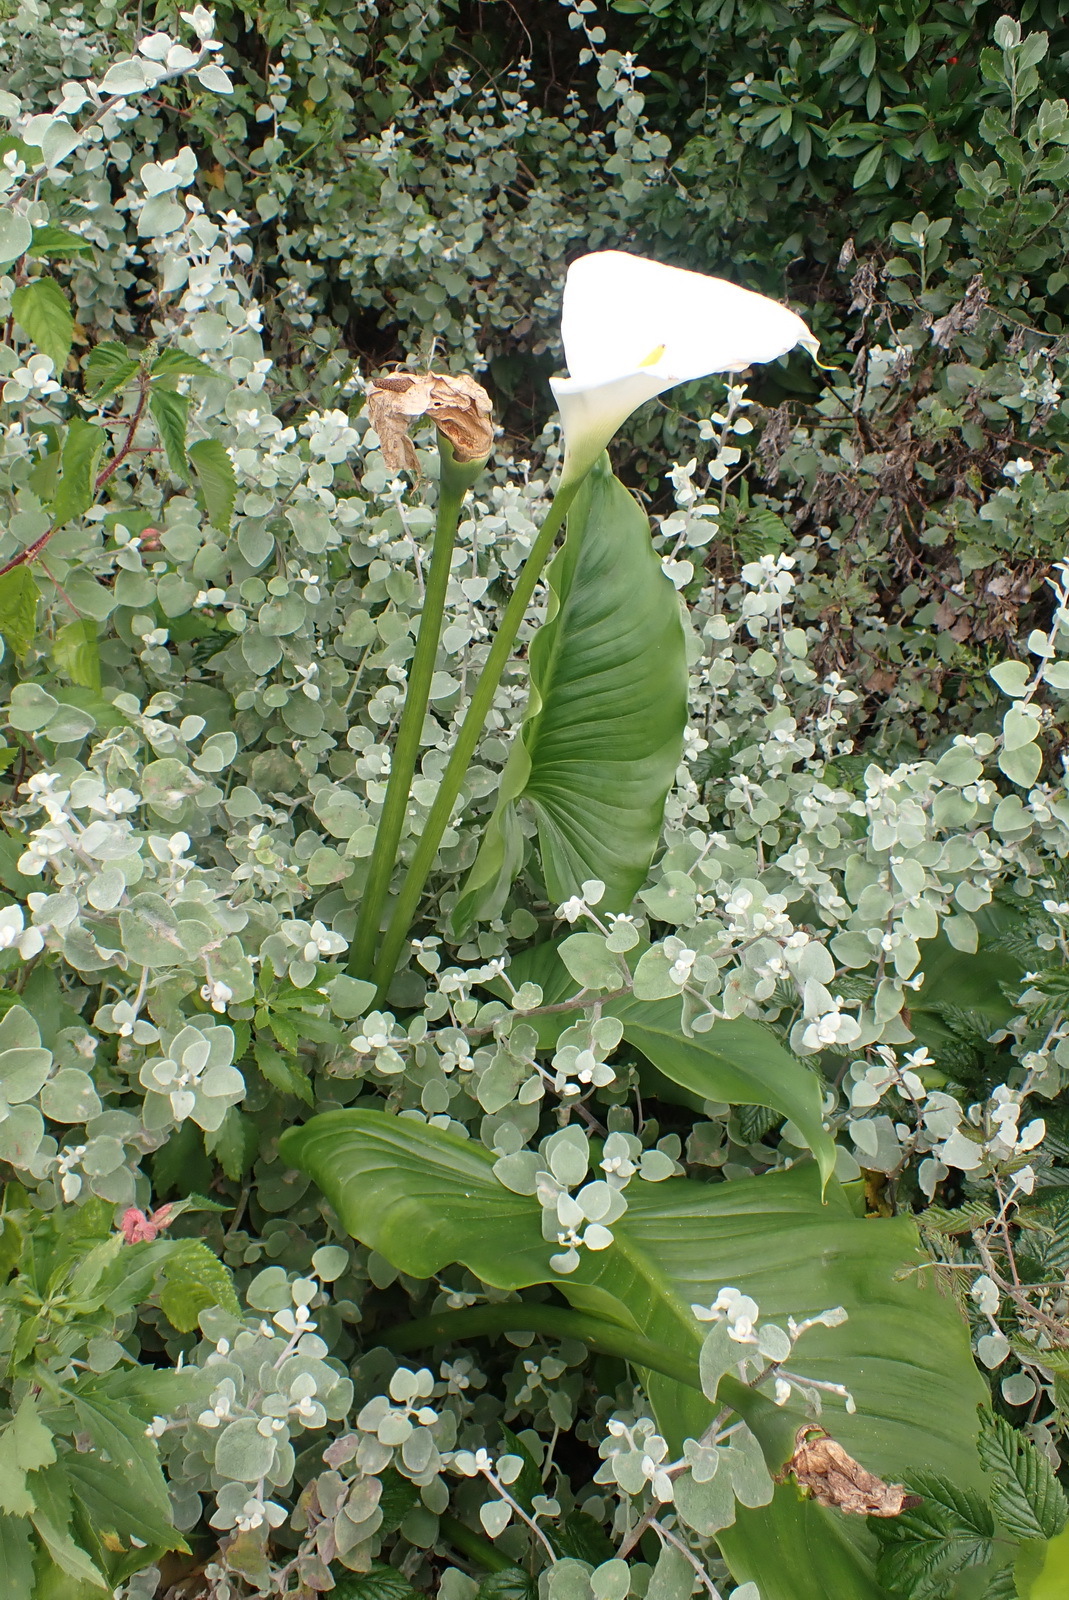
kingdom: Plantae
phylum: Tracheophyta
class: Liliopsida
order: Alismatales
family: Araceae
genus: Zantedeschia
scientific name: Zantedeschia aethiopica
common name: Altar-lily
